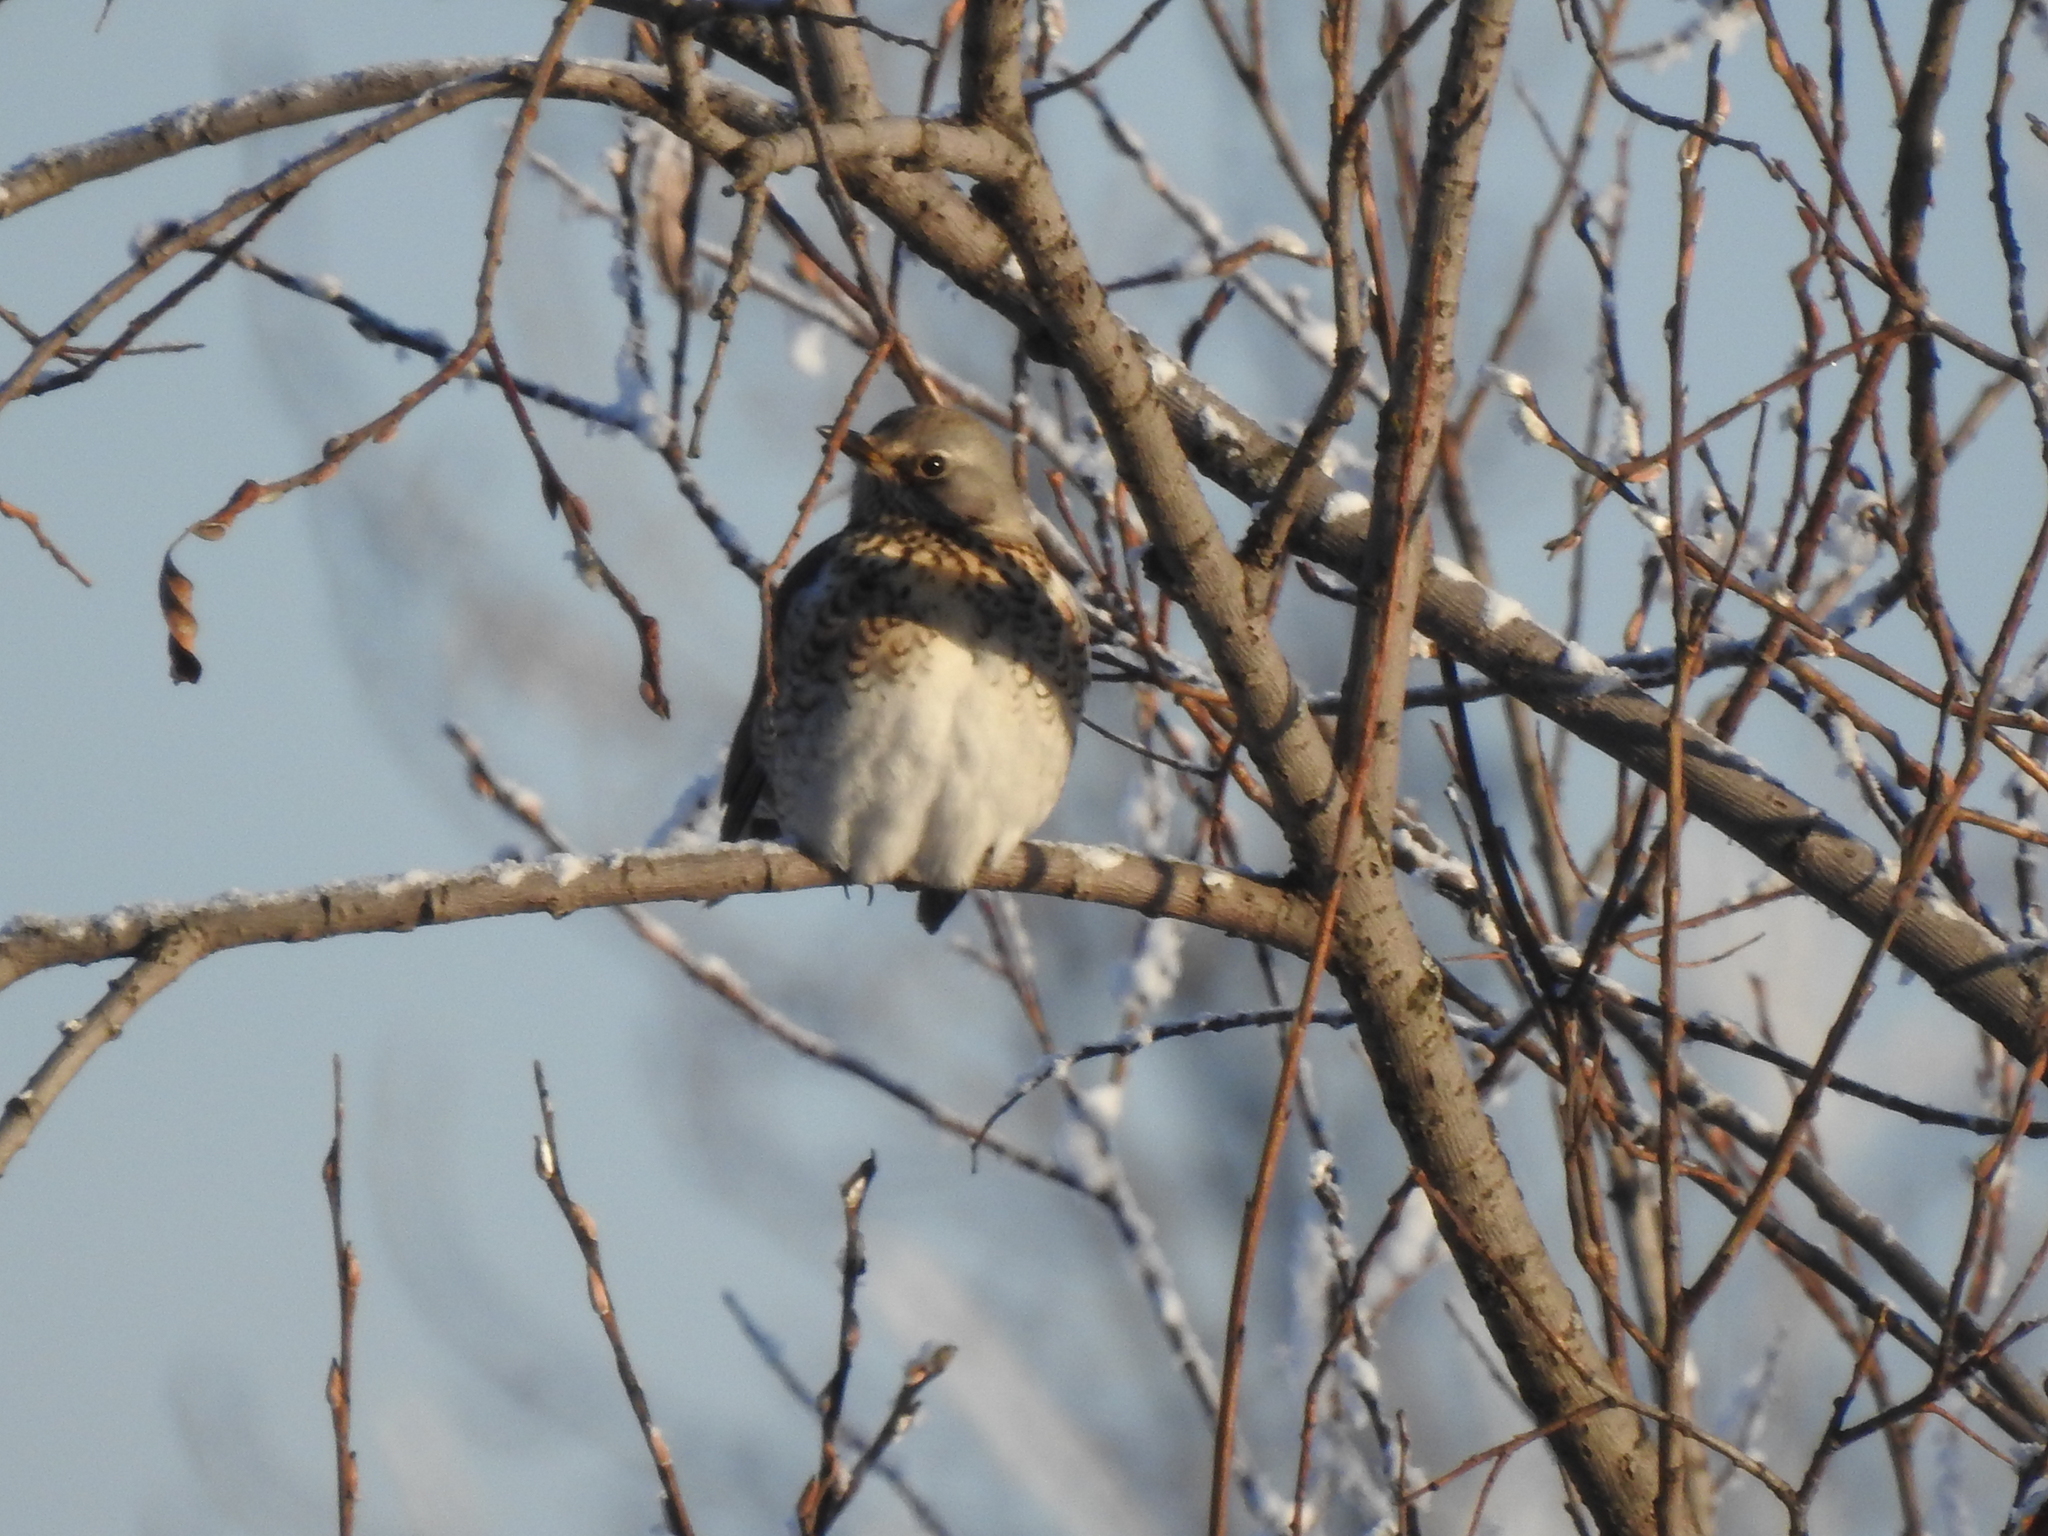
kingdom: Animalia
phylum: Chordata
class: Aves
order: Passeriformes
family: Turdidae
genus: Turdus
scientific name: Turdus pilaris
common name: Fieldfare
